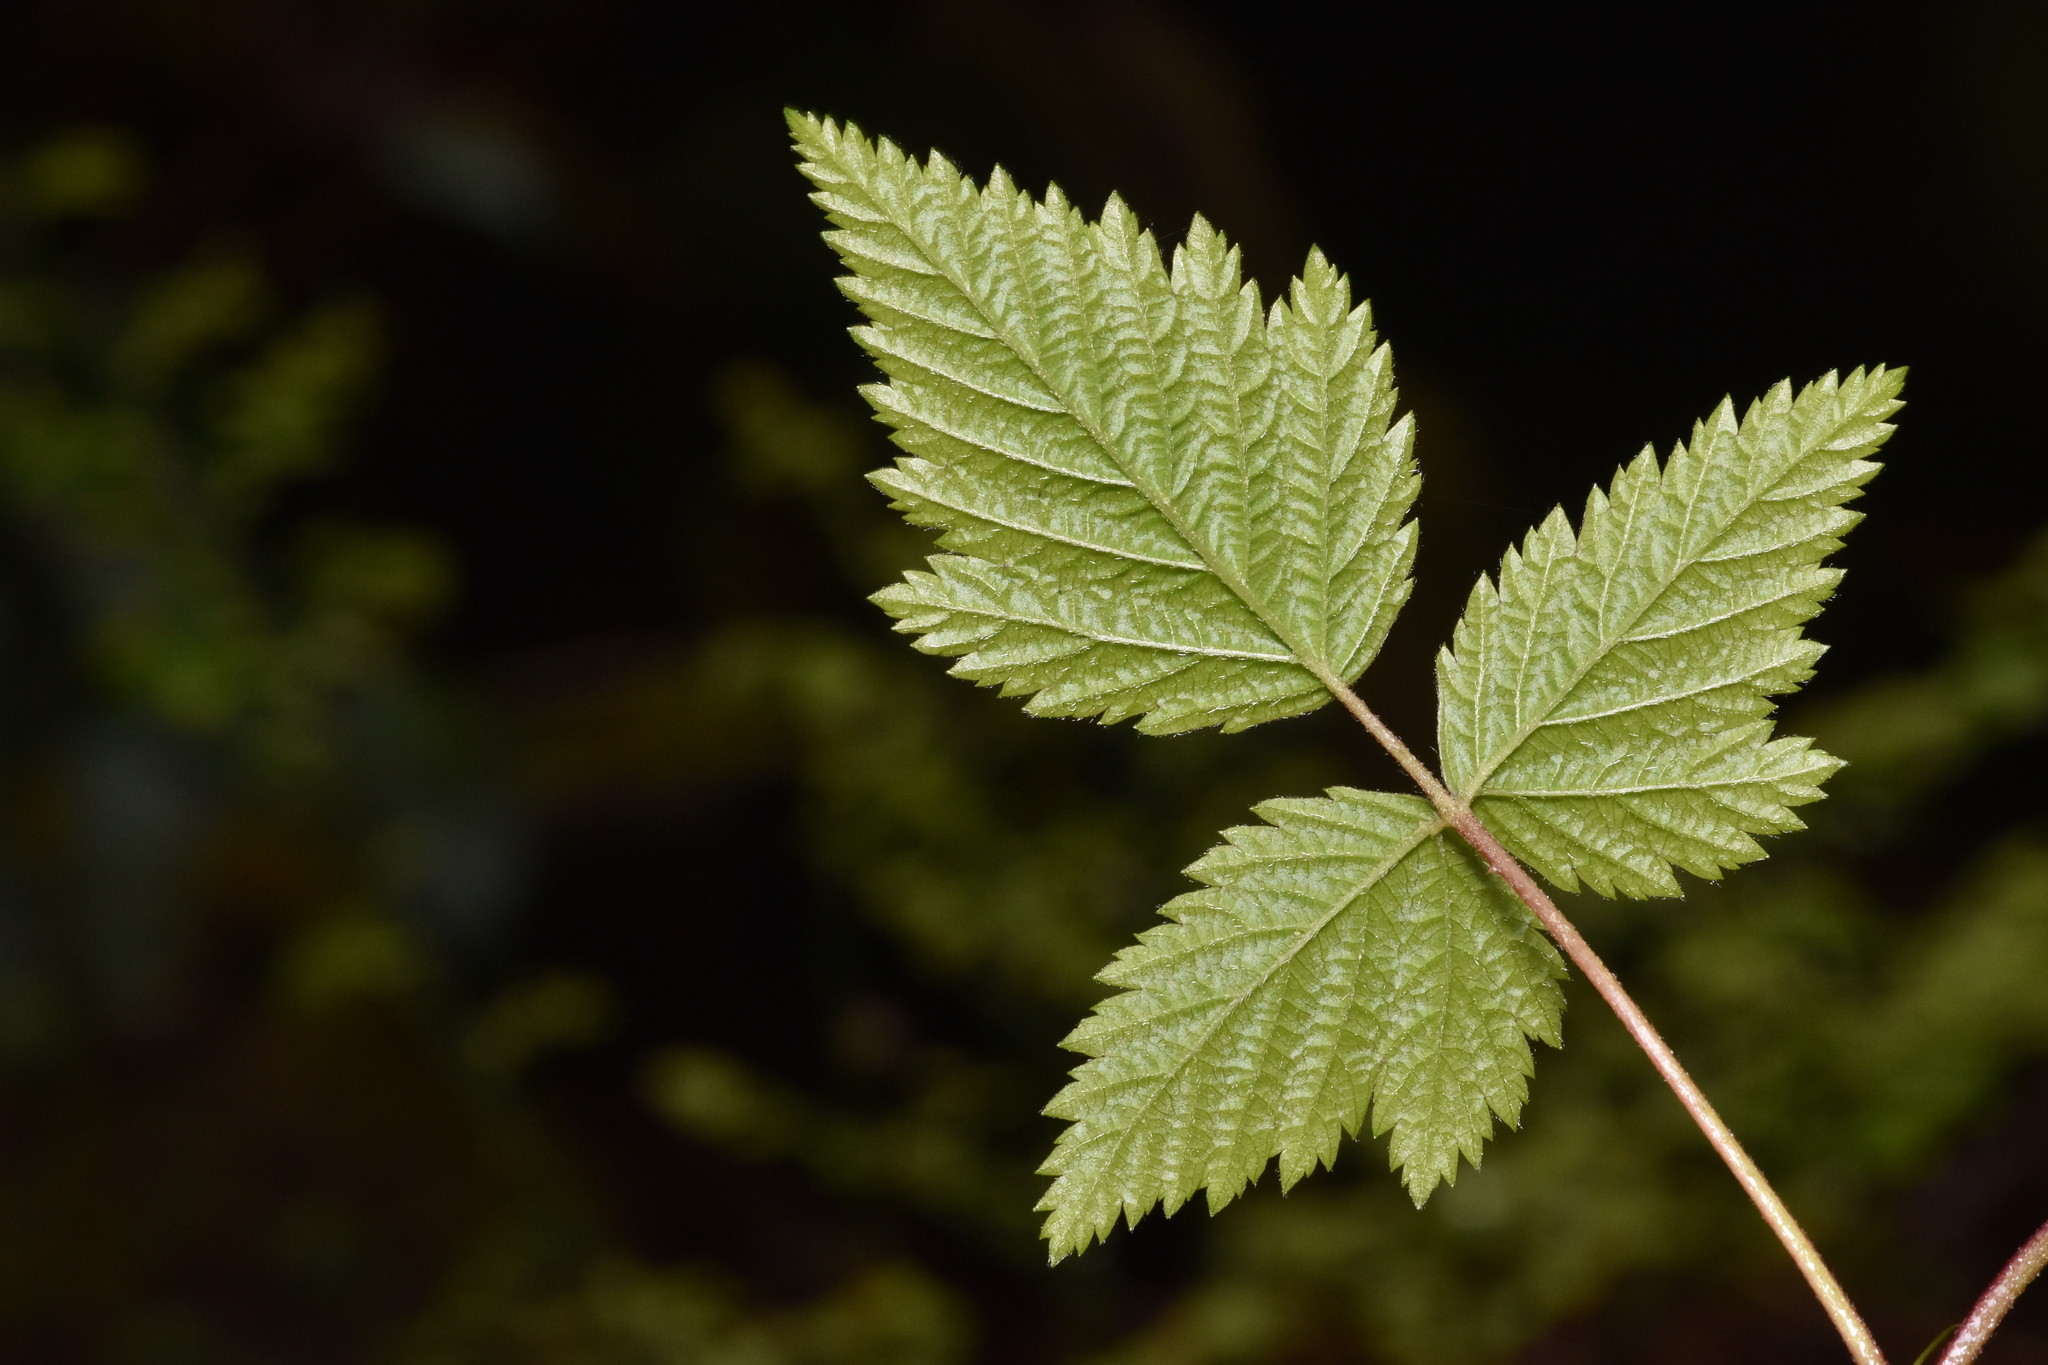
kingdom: Plantae
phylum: Tracheophyta
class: Magnoliopsida
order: Rosales
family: Rosaceae
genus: Rubus
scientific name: Rubus spectabilis
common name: Salmonberry
